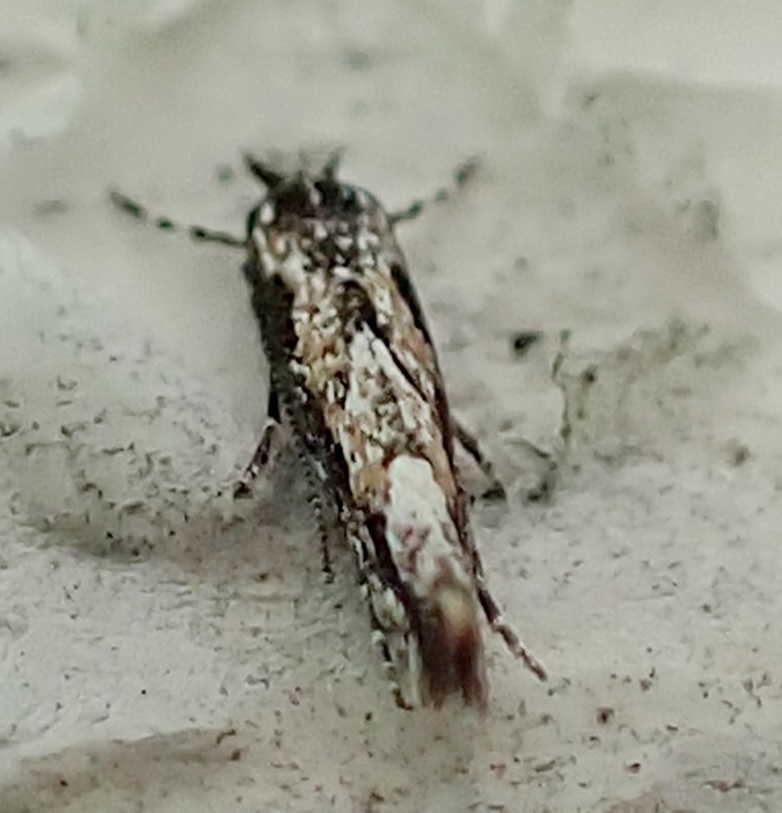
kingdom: Animalia
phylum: Arthropoda
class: Insecta
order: Lepidoptera
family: Gracillariidae
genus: Phyllonorycter
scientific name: Phyllonorycter issikii
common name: Linden midget
